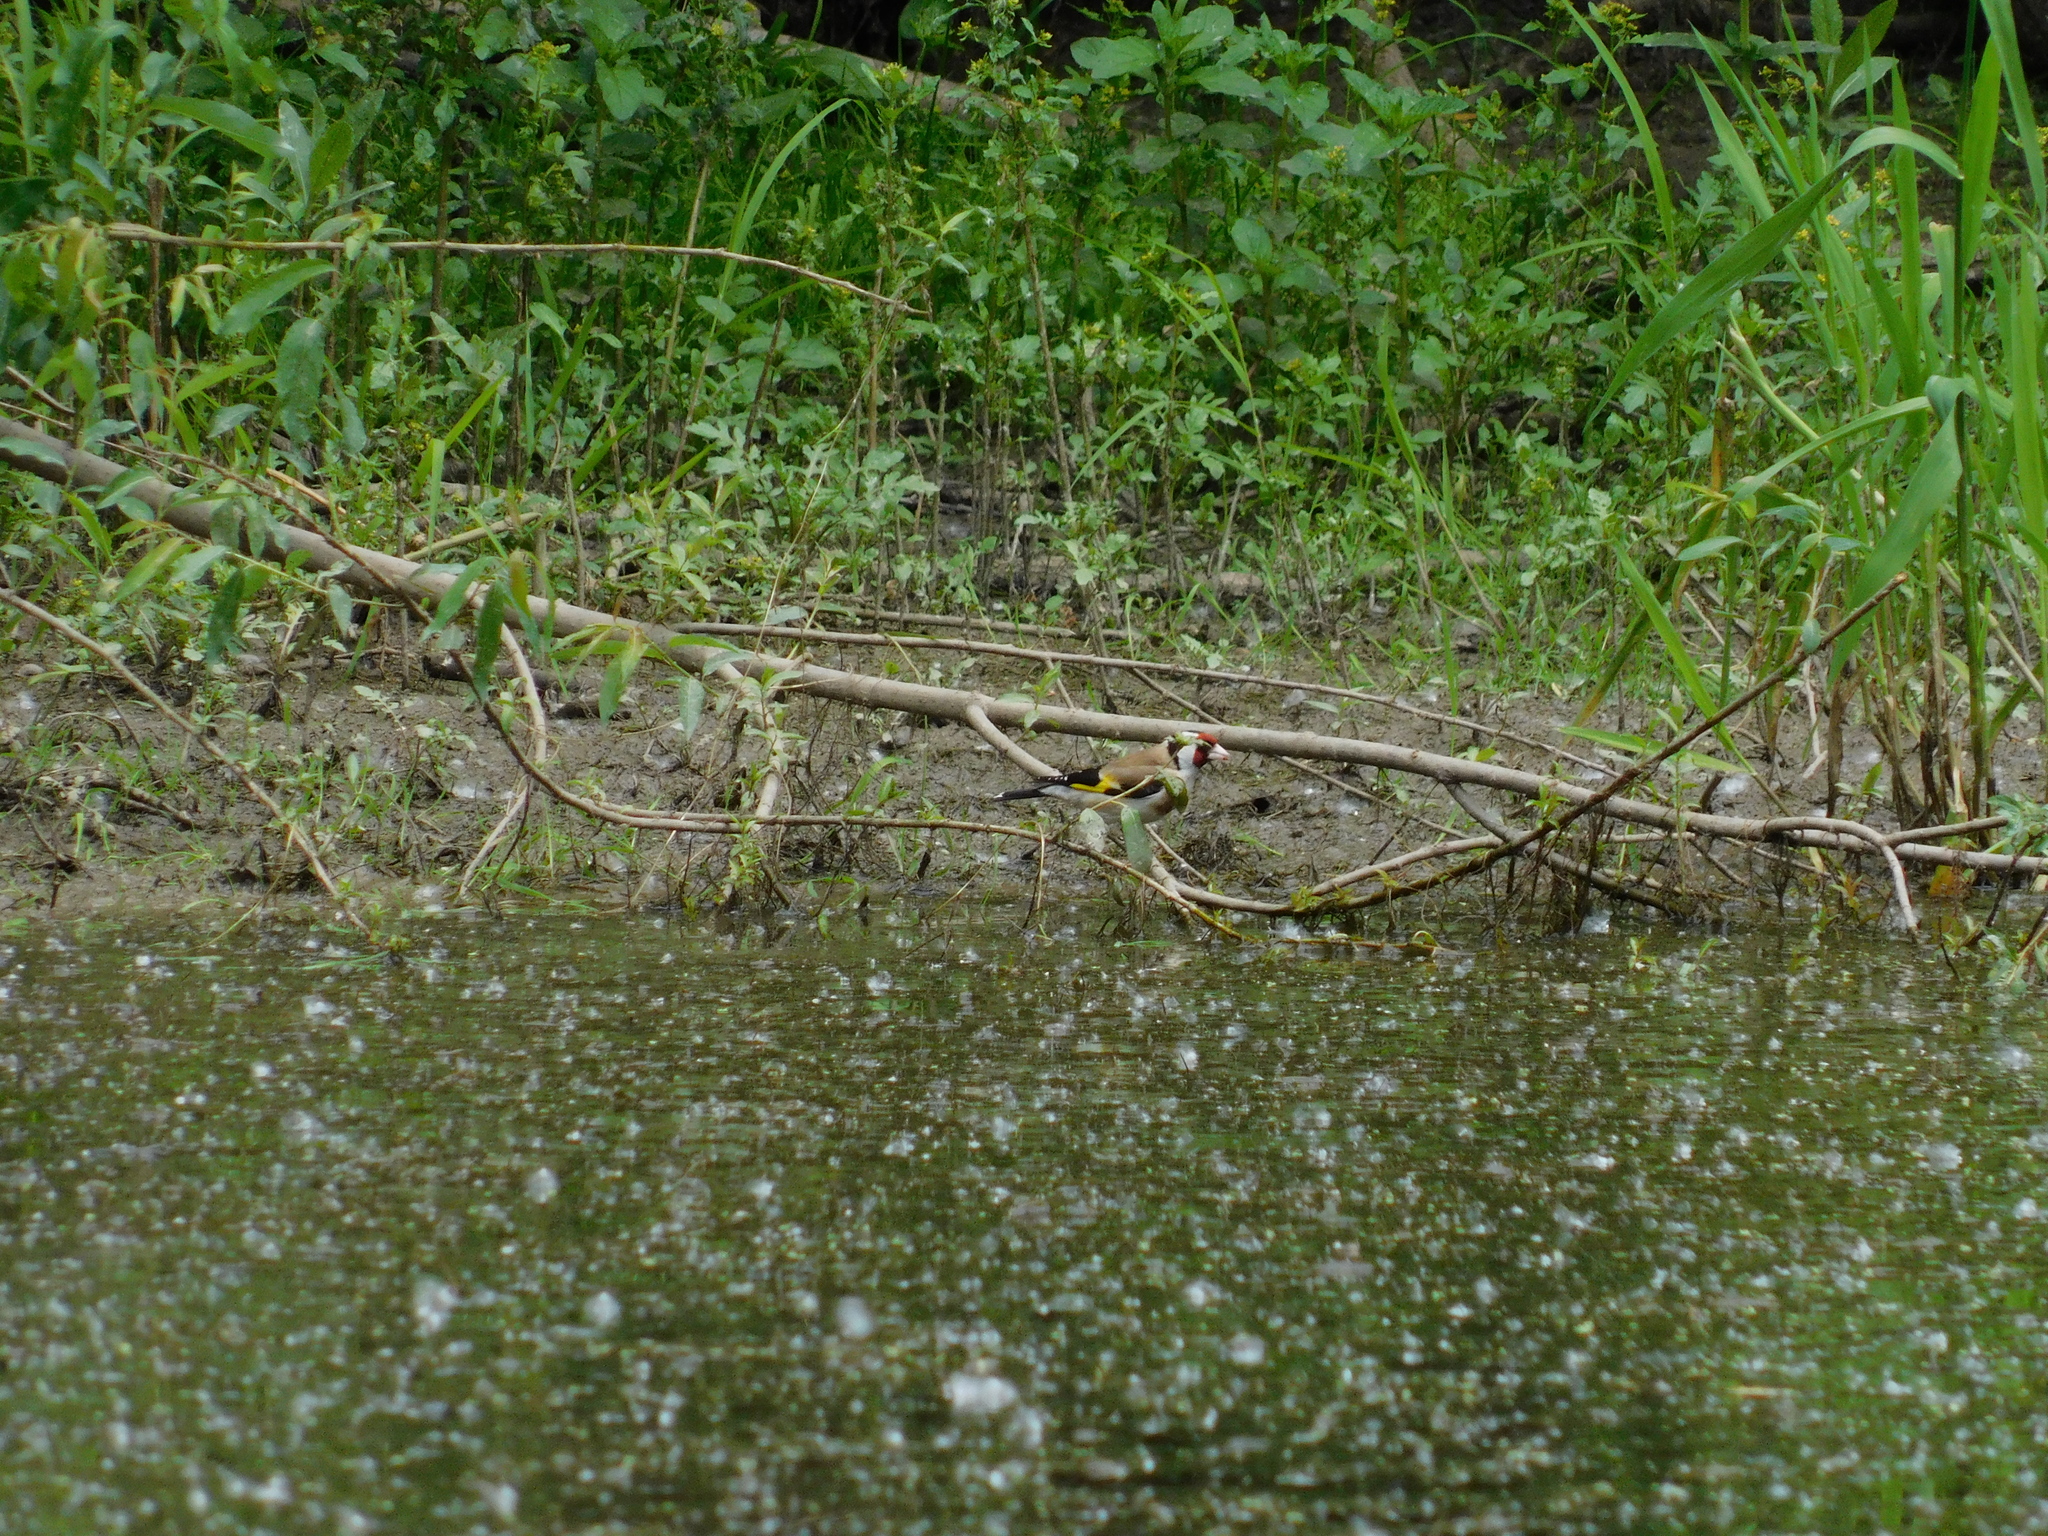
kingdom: Animalia
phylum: Chordata
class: Aves
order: Passeriformes
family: Fringillidae
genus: Carduelis
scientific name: Carduelis carduelis
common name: European goldfinch
